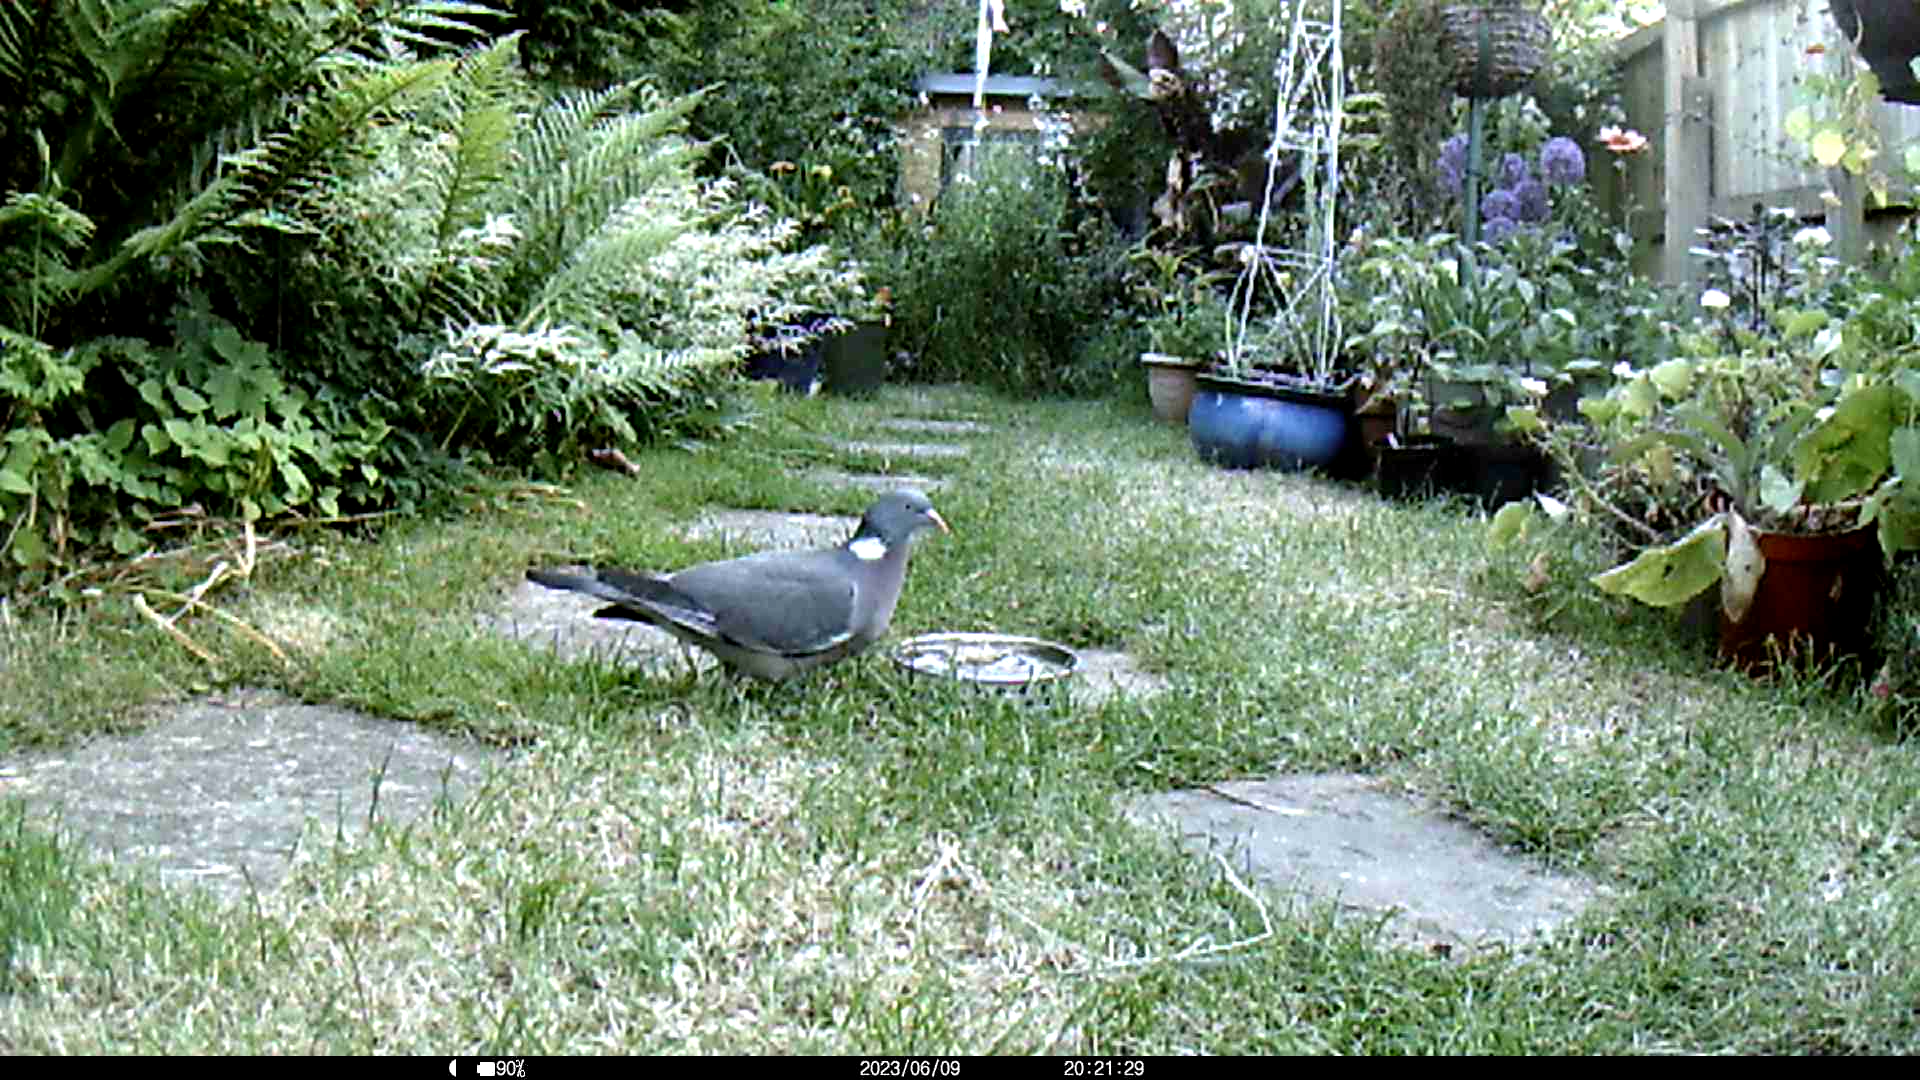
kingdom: Animalia
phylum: Chordata
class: Aves
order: Columbiformes
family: Columbidae
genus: Columba
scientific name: Columba palumbus
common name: Common wood pigeon
